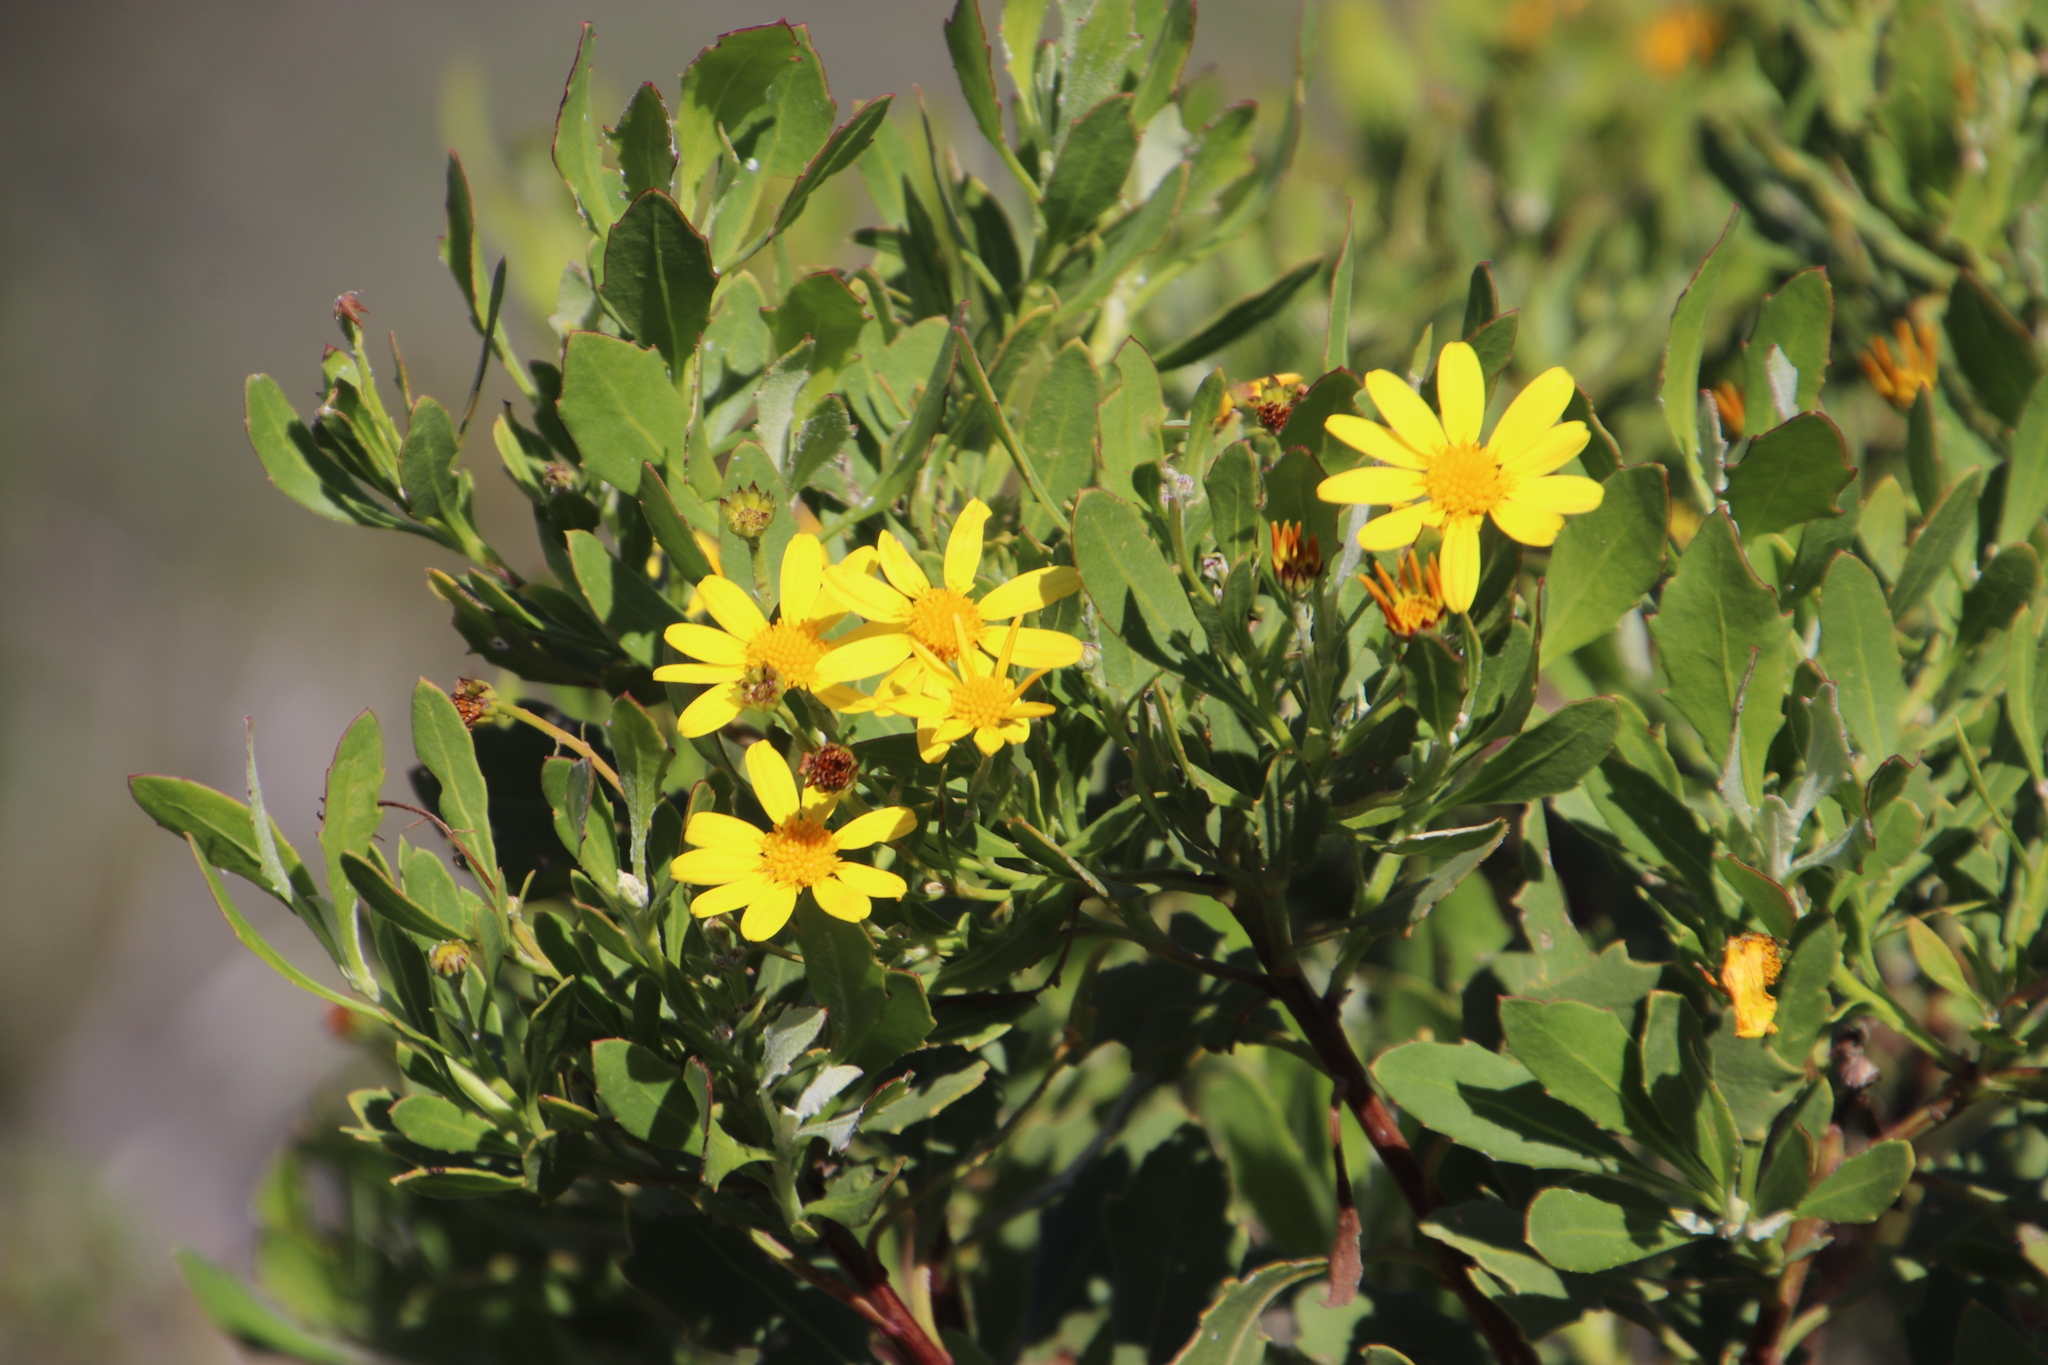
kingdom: Plantae
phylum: Tracheophyta
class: Magnoliopsida
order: Asterales
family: Asteraceae
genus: Osteospermum
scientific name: Osteospermum moniliferum
